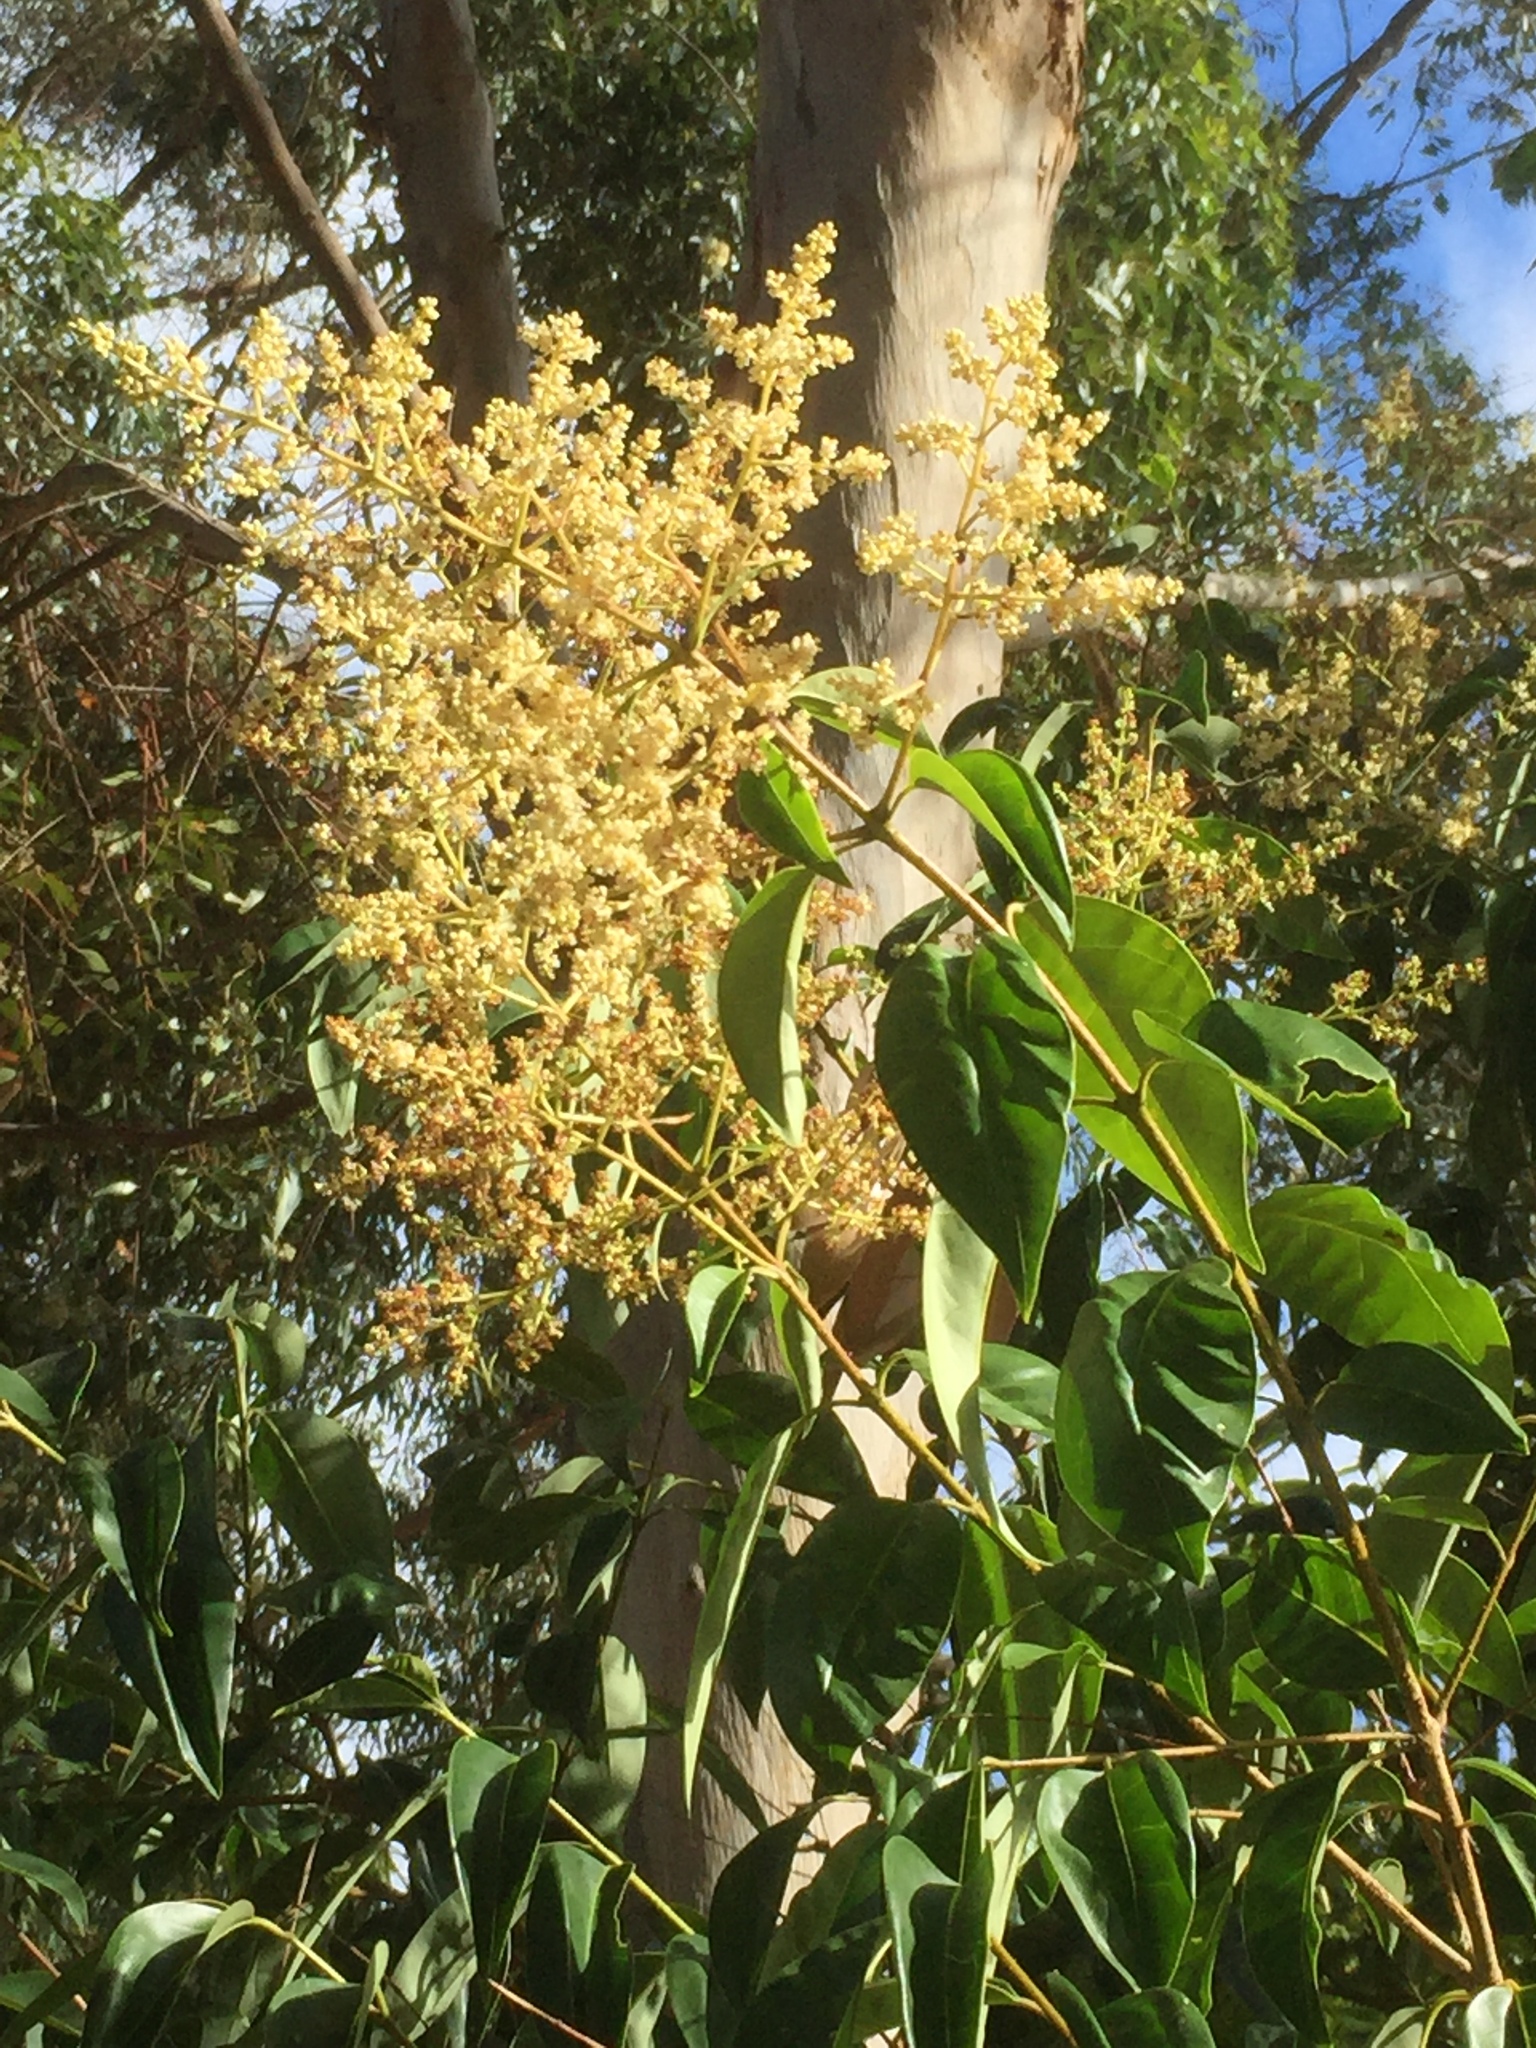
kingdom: Plantae
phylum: Tracheophyta
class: Magnoliopsida
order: Lamiales
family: Oleaceae
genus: Ligustrum
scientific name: Ligustrum lucidum
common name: Glossy privet
